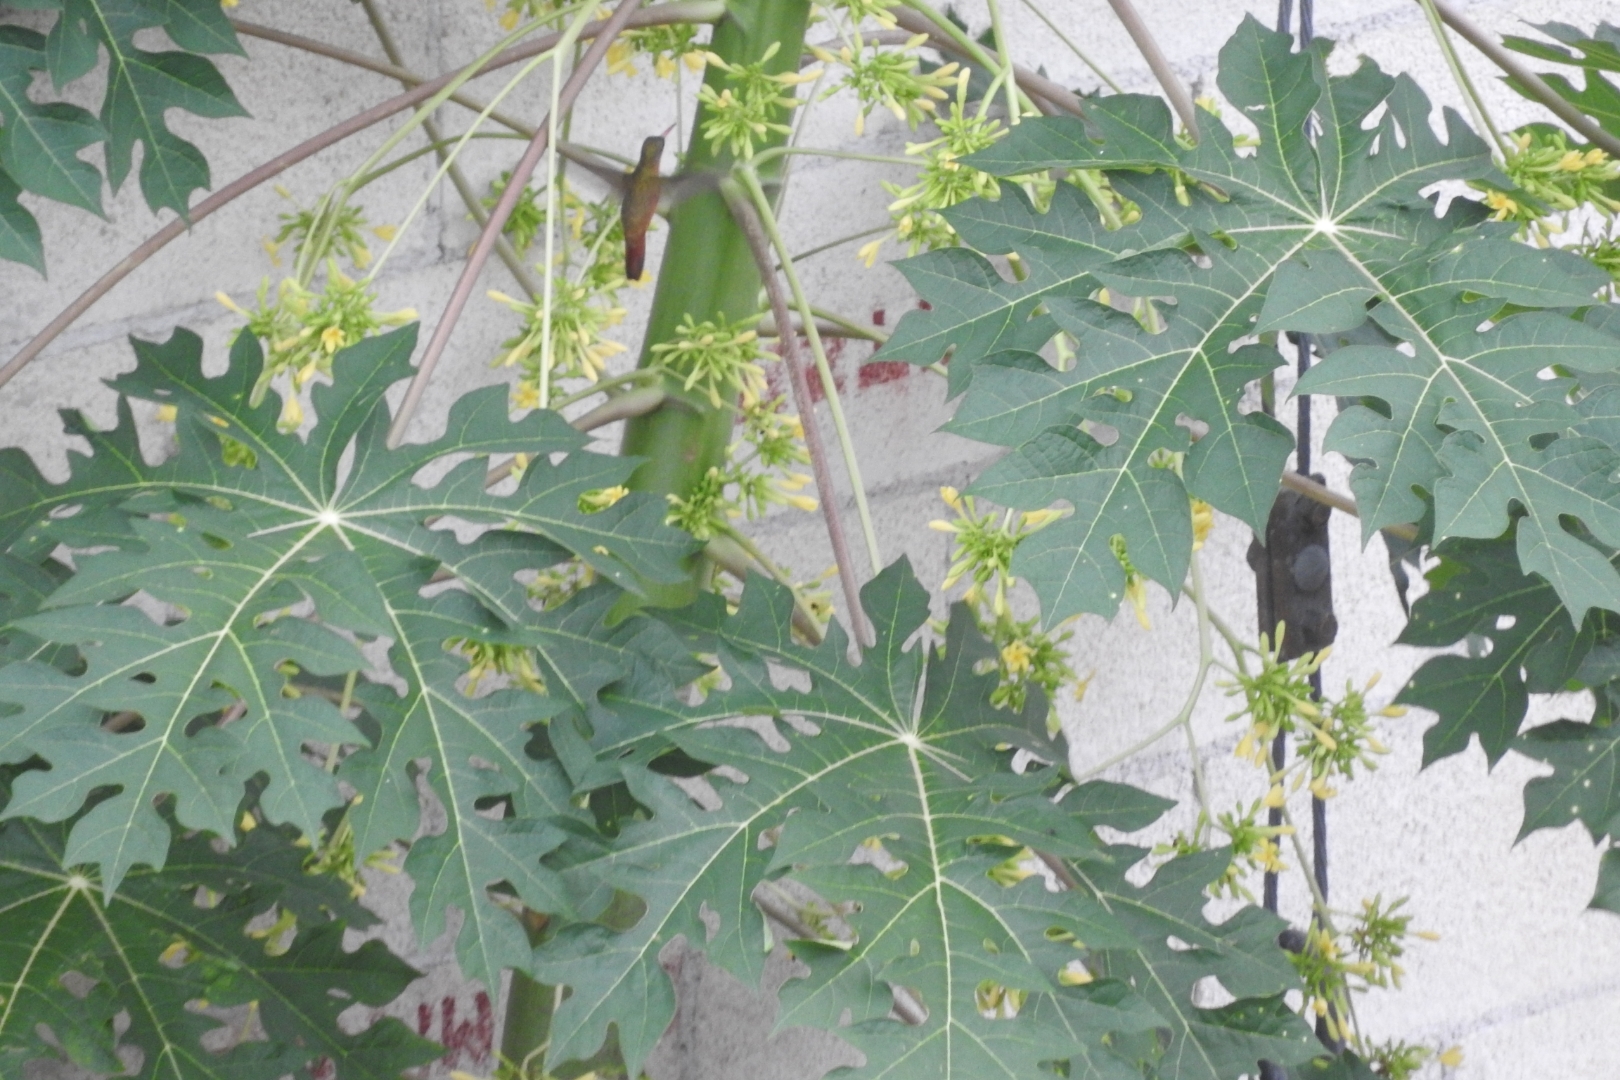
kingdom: Animalia
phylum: Chordata
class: Aves
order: Apodiformes
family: Trochilidae
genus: Amazilia
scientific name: Amazilia rutila
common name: Cinnamon hummingbird
